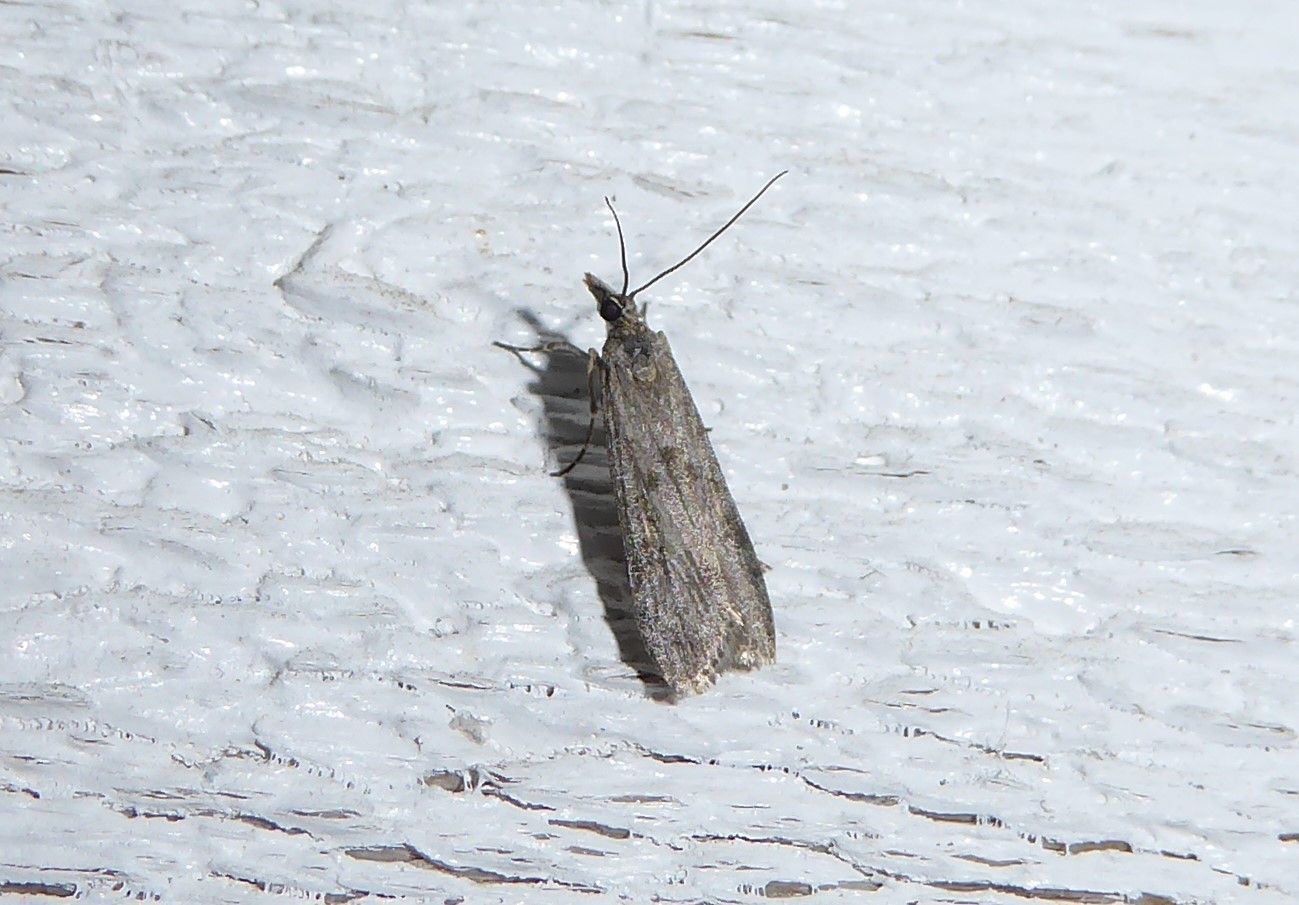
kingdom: Animalia
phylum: Arthropoda
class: Insecta
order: Lepidoptera
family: Crambidae
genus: Eudonia
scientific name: Eudonia leptalea
